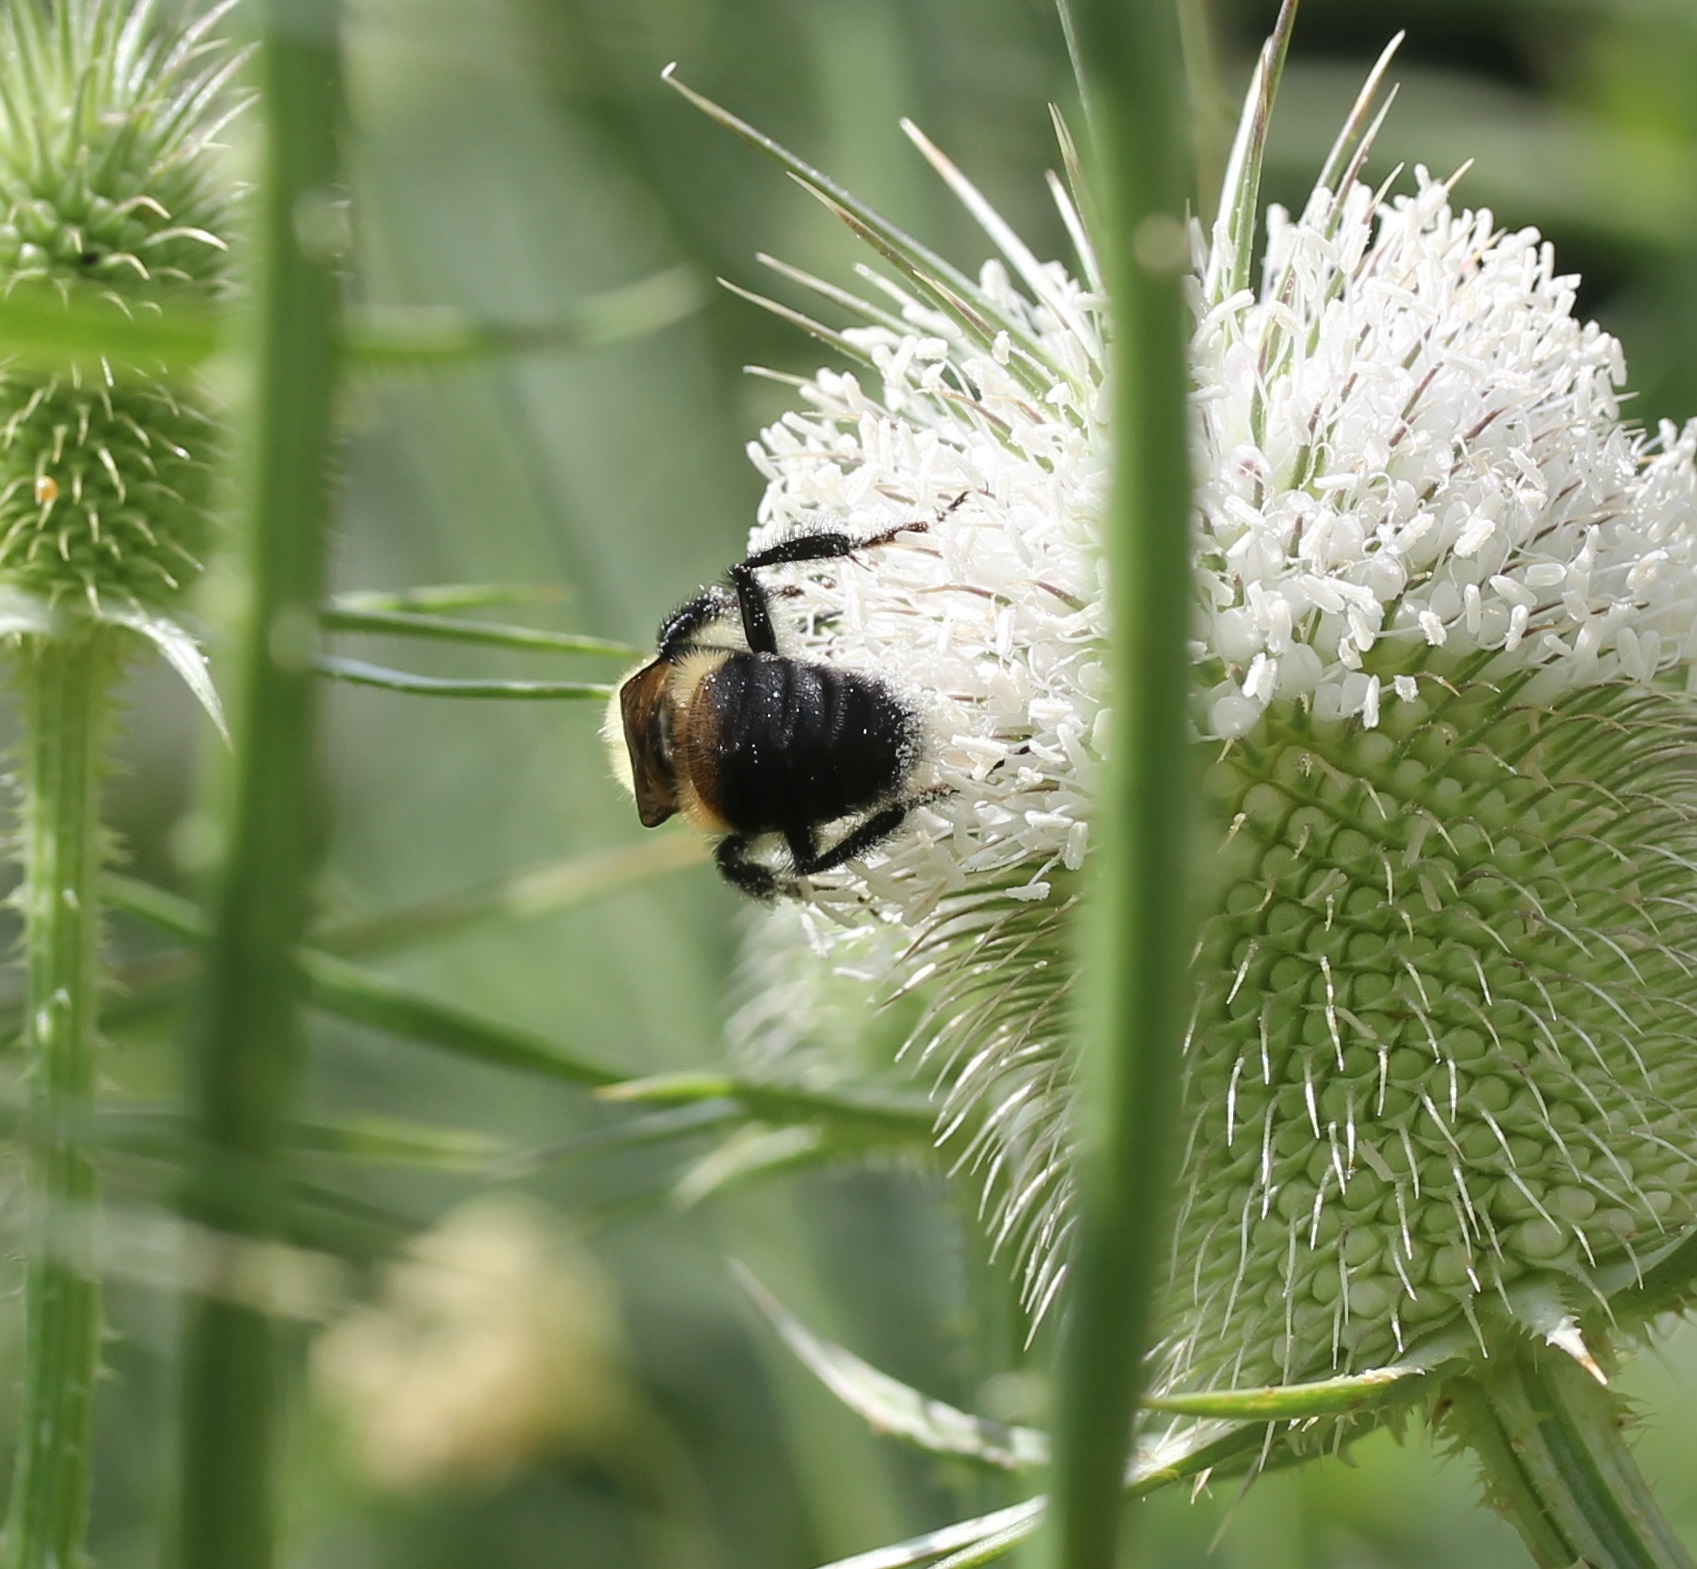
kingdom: Animalia
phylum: Arthropoda
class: Insecta
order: Hymenoptera
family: Apidae
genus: Bombus
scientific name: Bombus griseocollis
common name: Brown-belted bumble bee
